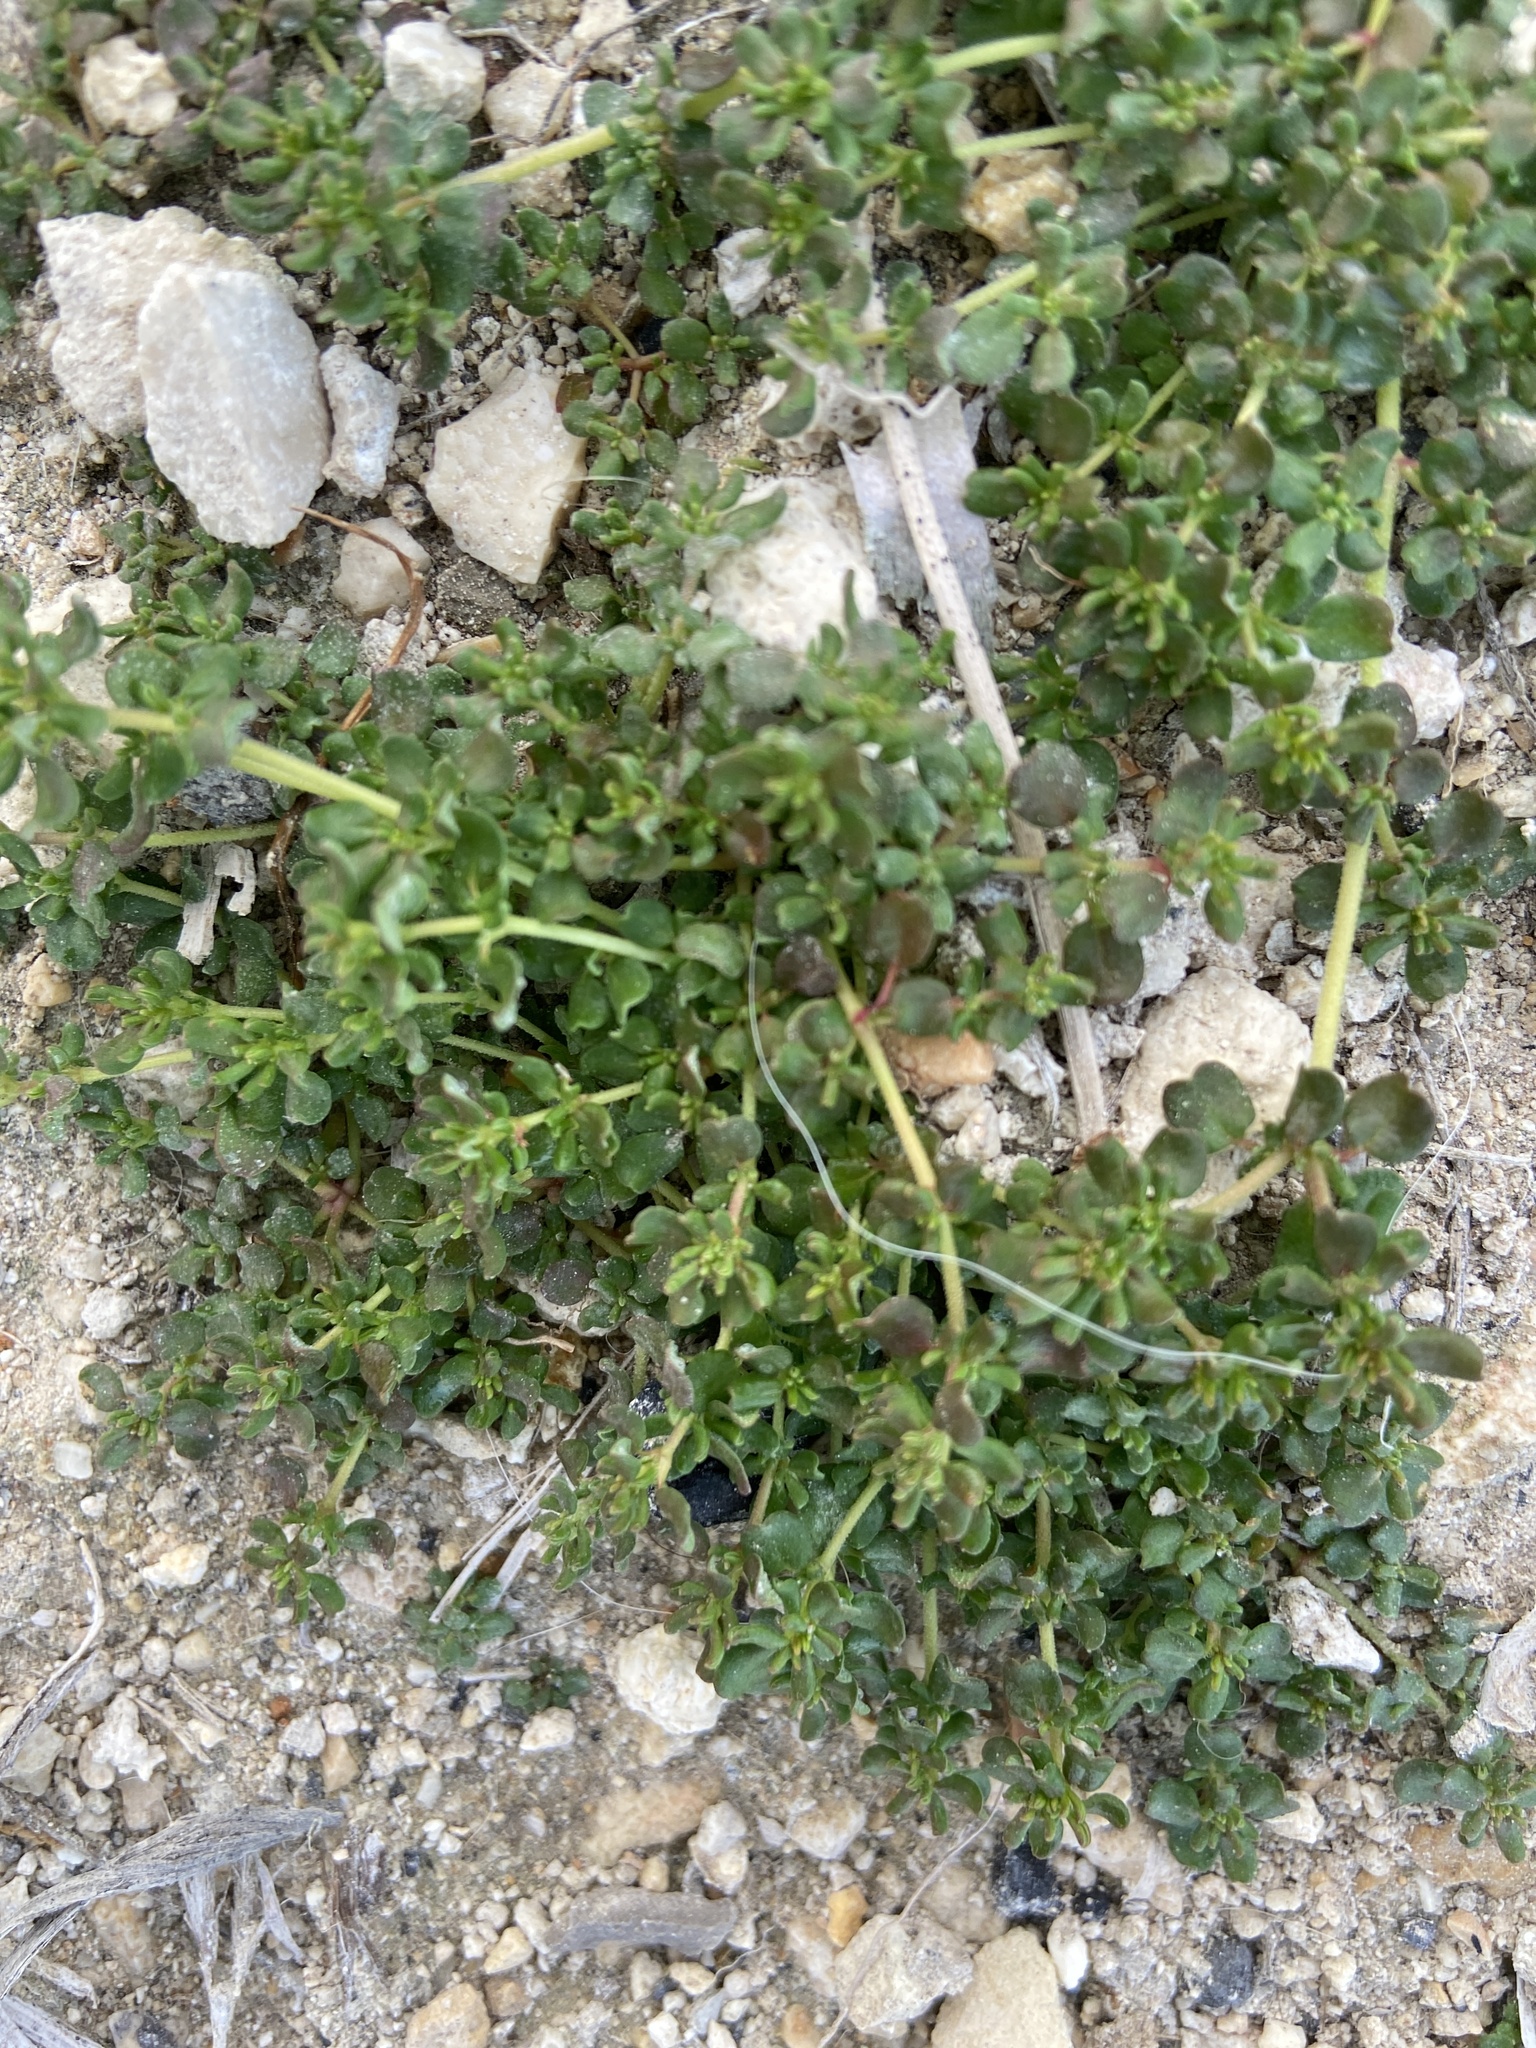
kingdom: Plantae
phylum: Tracheophyta
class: Magnoliopsida
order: Caryophyllales
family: Frankeniaceae
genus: Frankenia
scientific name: Frankenia pulverulenta
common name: European seaheath
